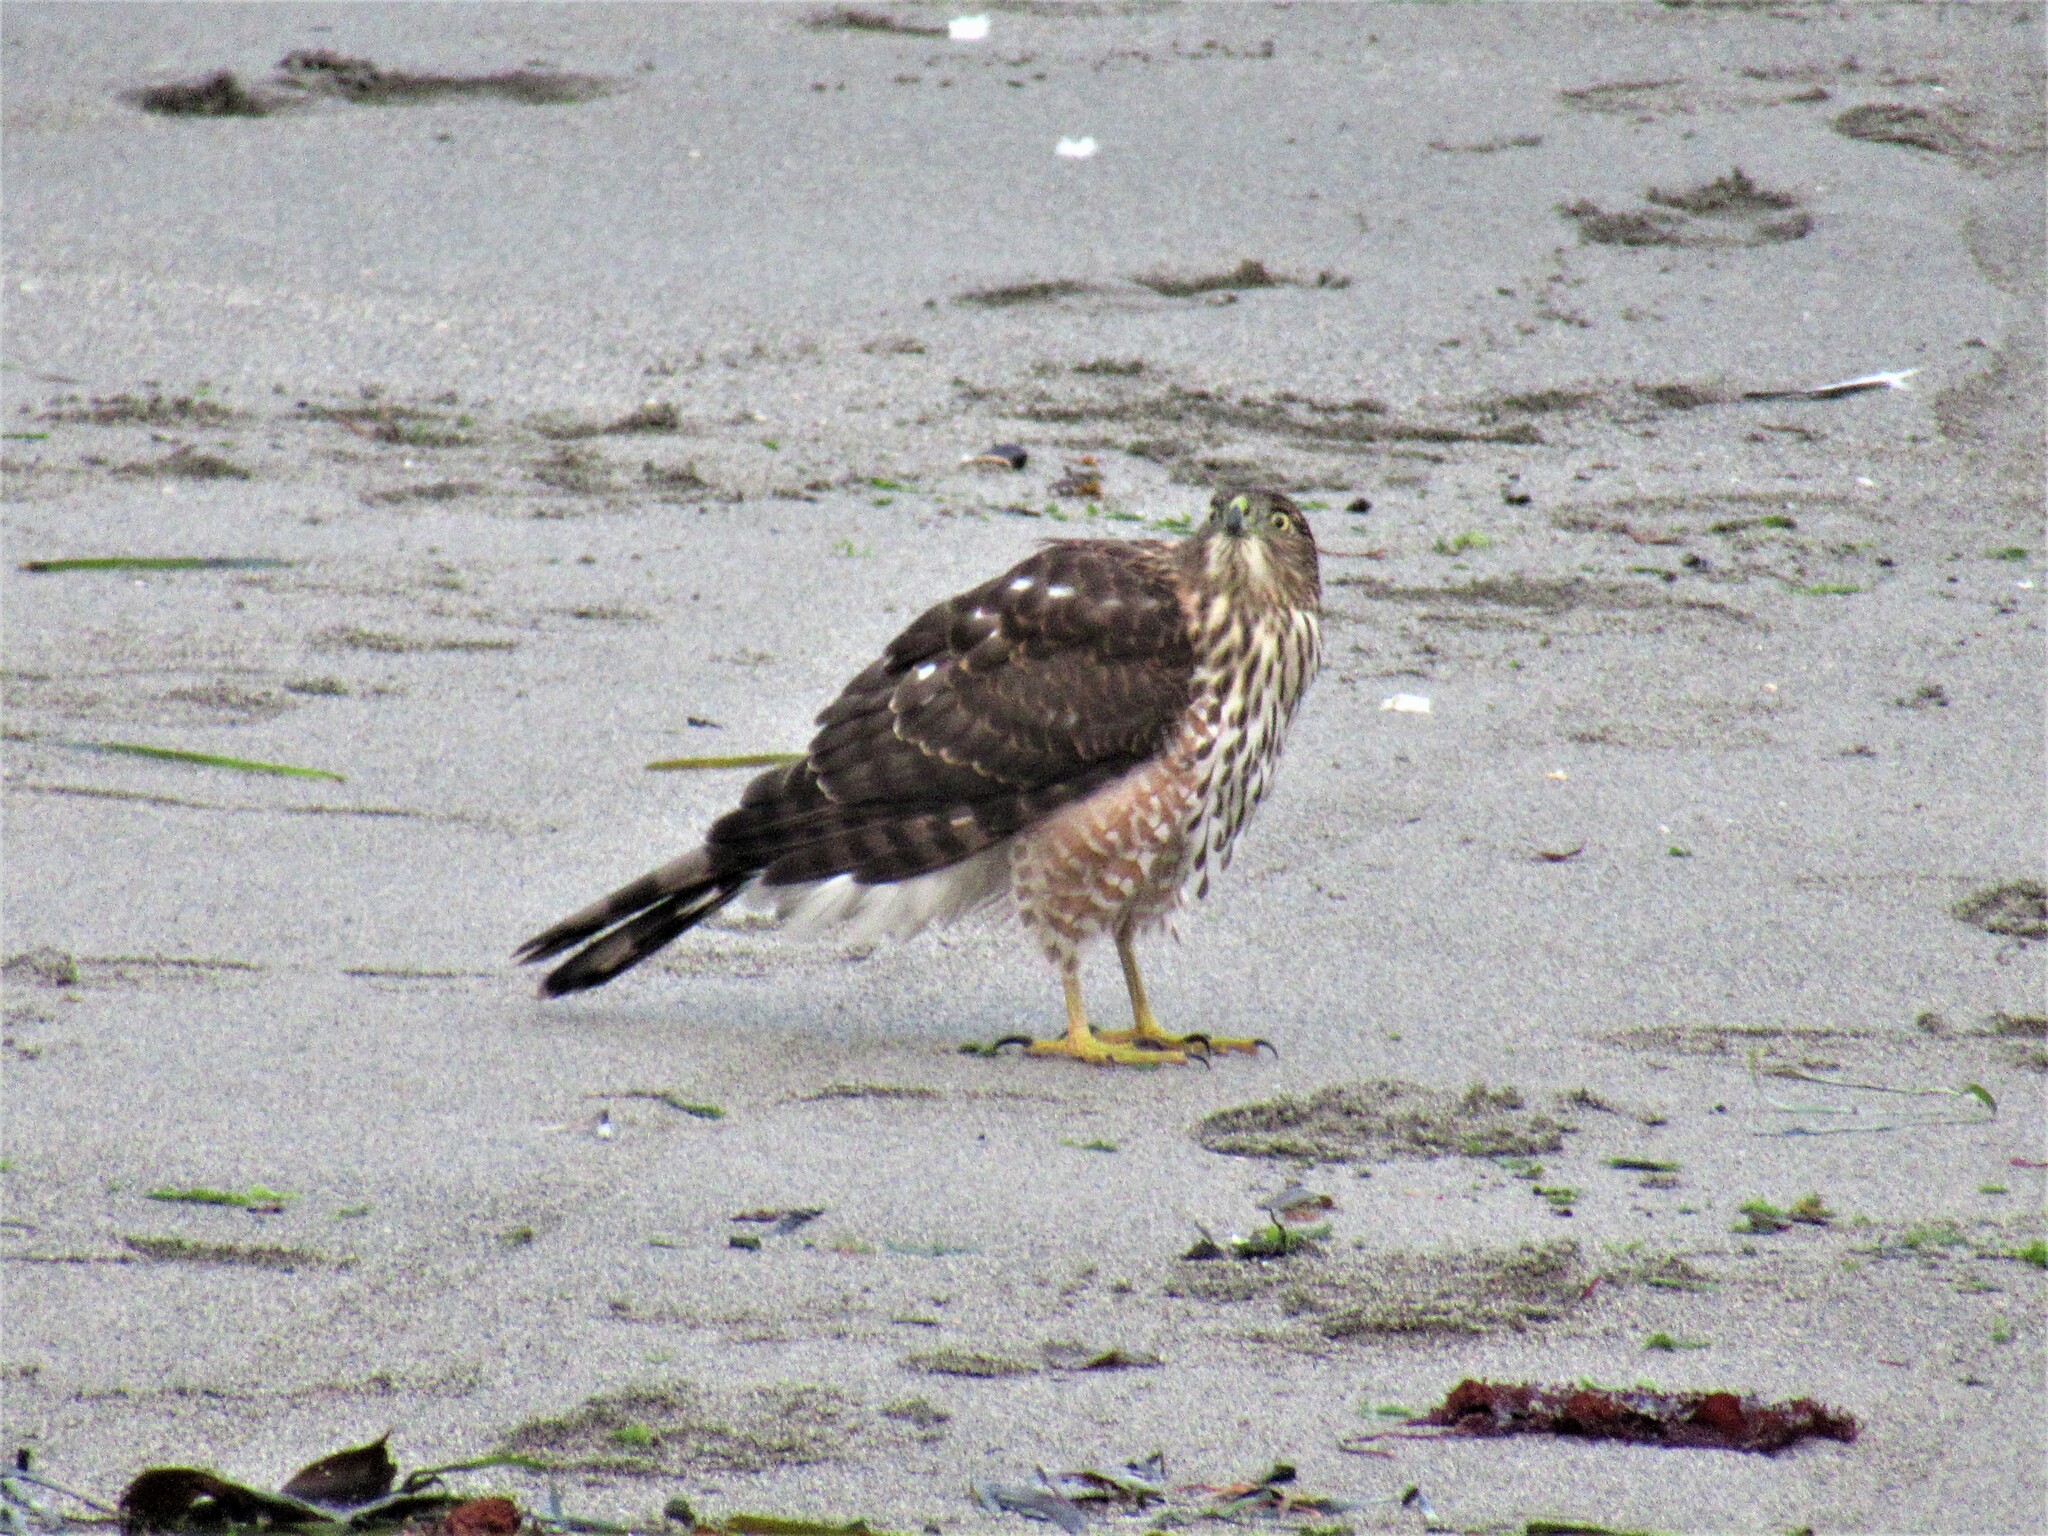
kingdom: Animalia
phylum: Chordata
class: Aves
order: Accipitriformes
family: Accipitridae
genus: Accipiter
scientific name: Accipiter cooperii
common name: Cooper's hawk
